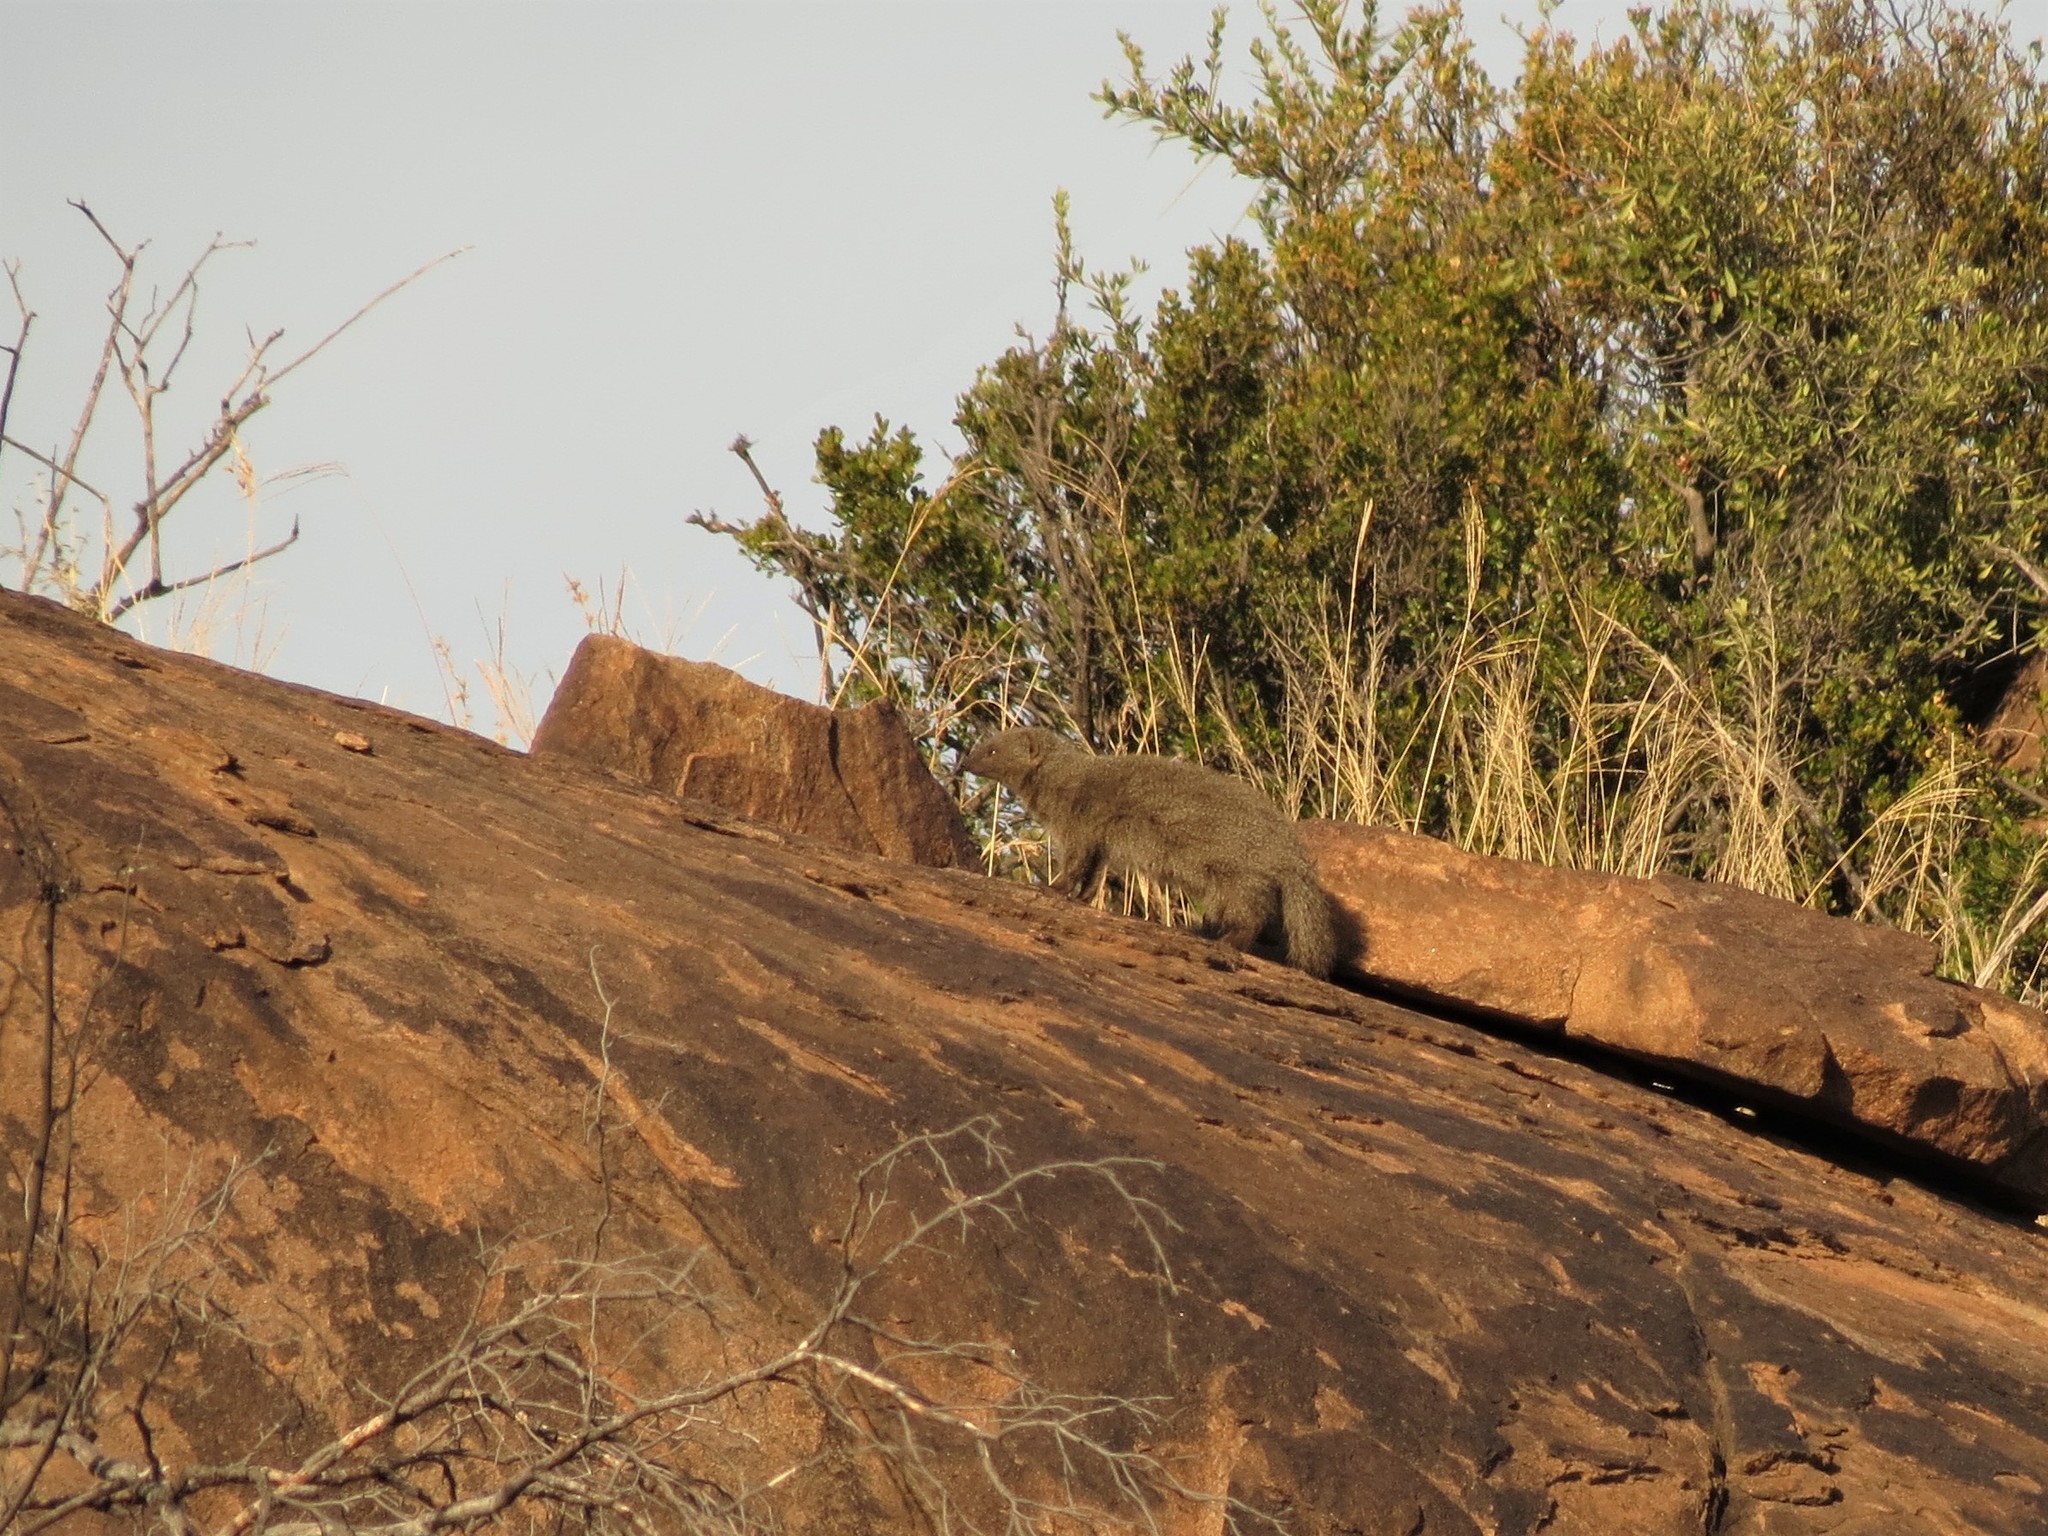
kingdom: Animalia
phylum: Chordata
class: Mammalia
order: Carnivora
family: Herpestidae
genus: Galerella
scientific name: Galerella pulverulenta
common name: Cape gray mongoose
